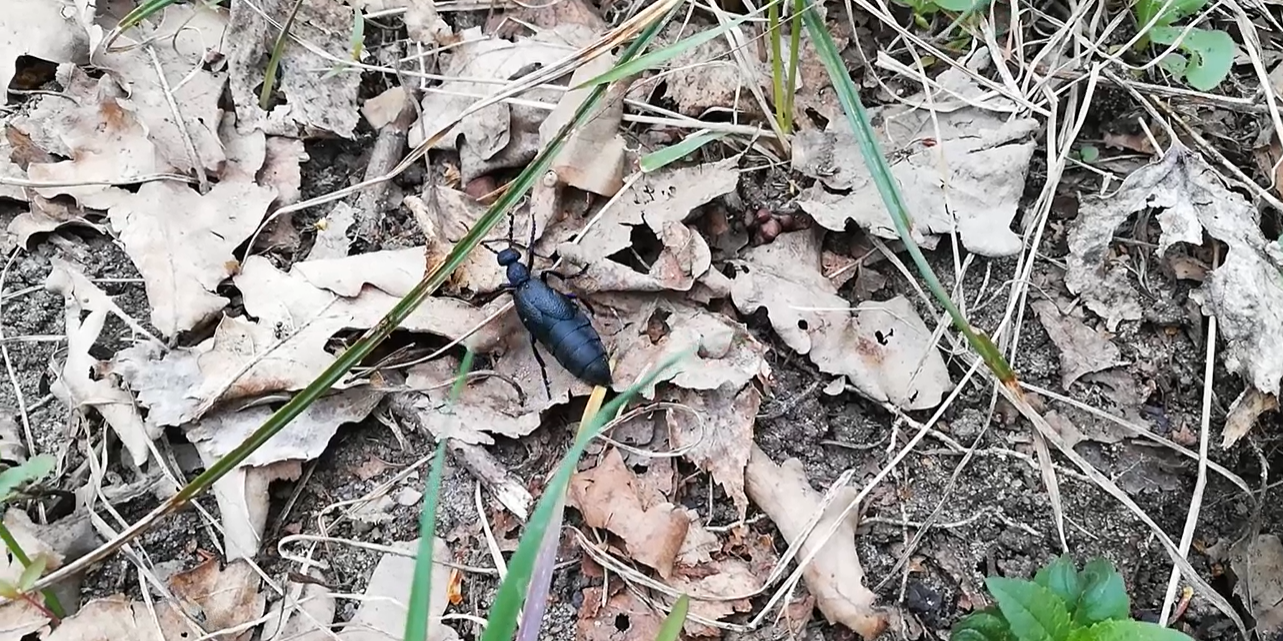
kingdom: Animalia
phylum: Arthropoda
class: Insecta
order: Coleoptera
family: Meloidae
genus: Meloe
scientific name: Meloe proscarabaeus
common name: Black oil-beetle
